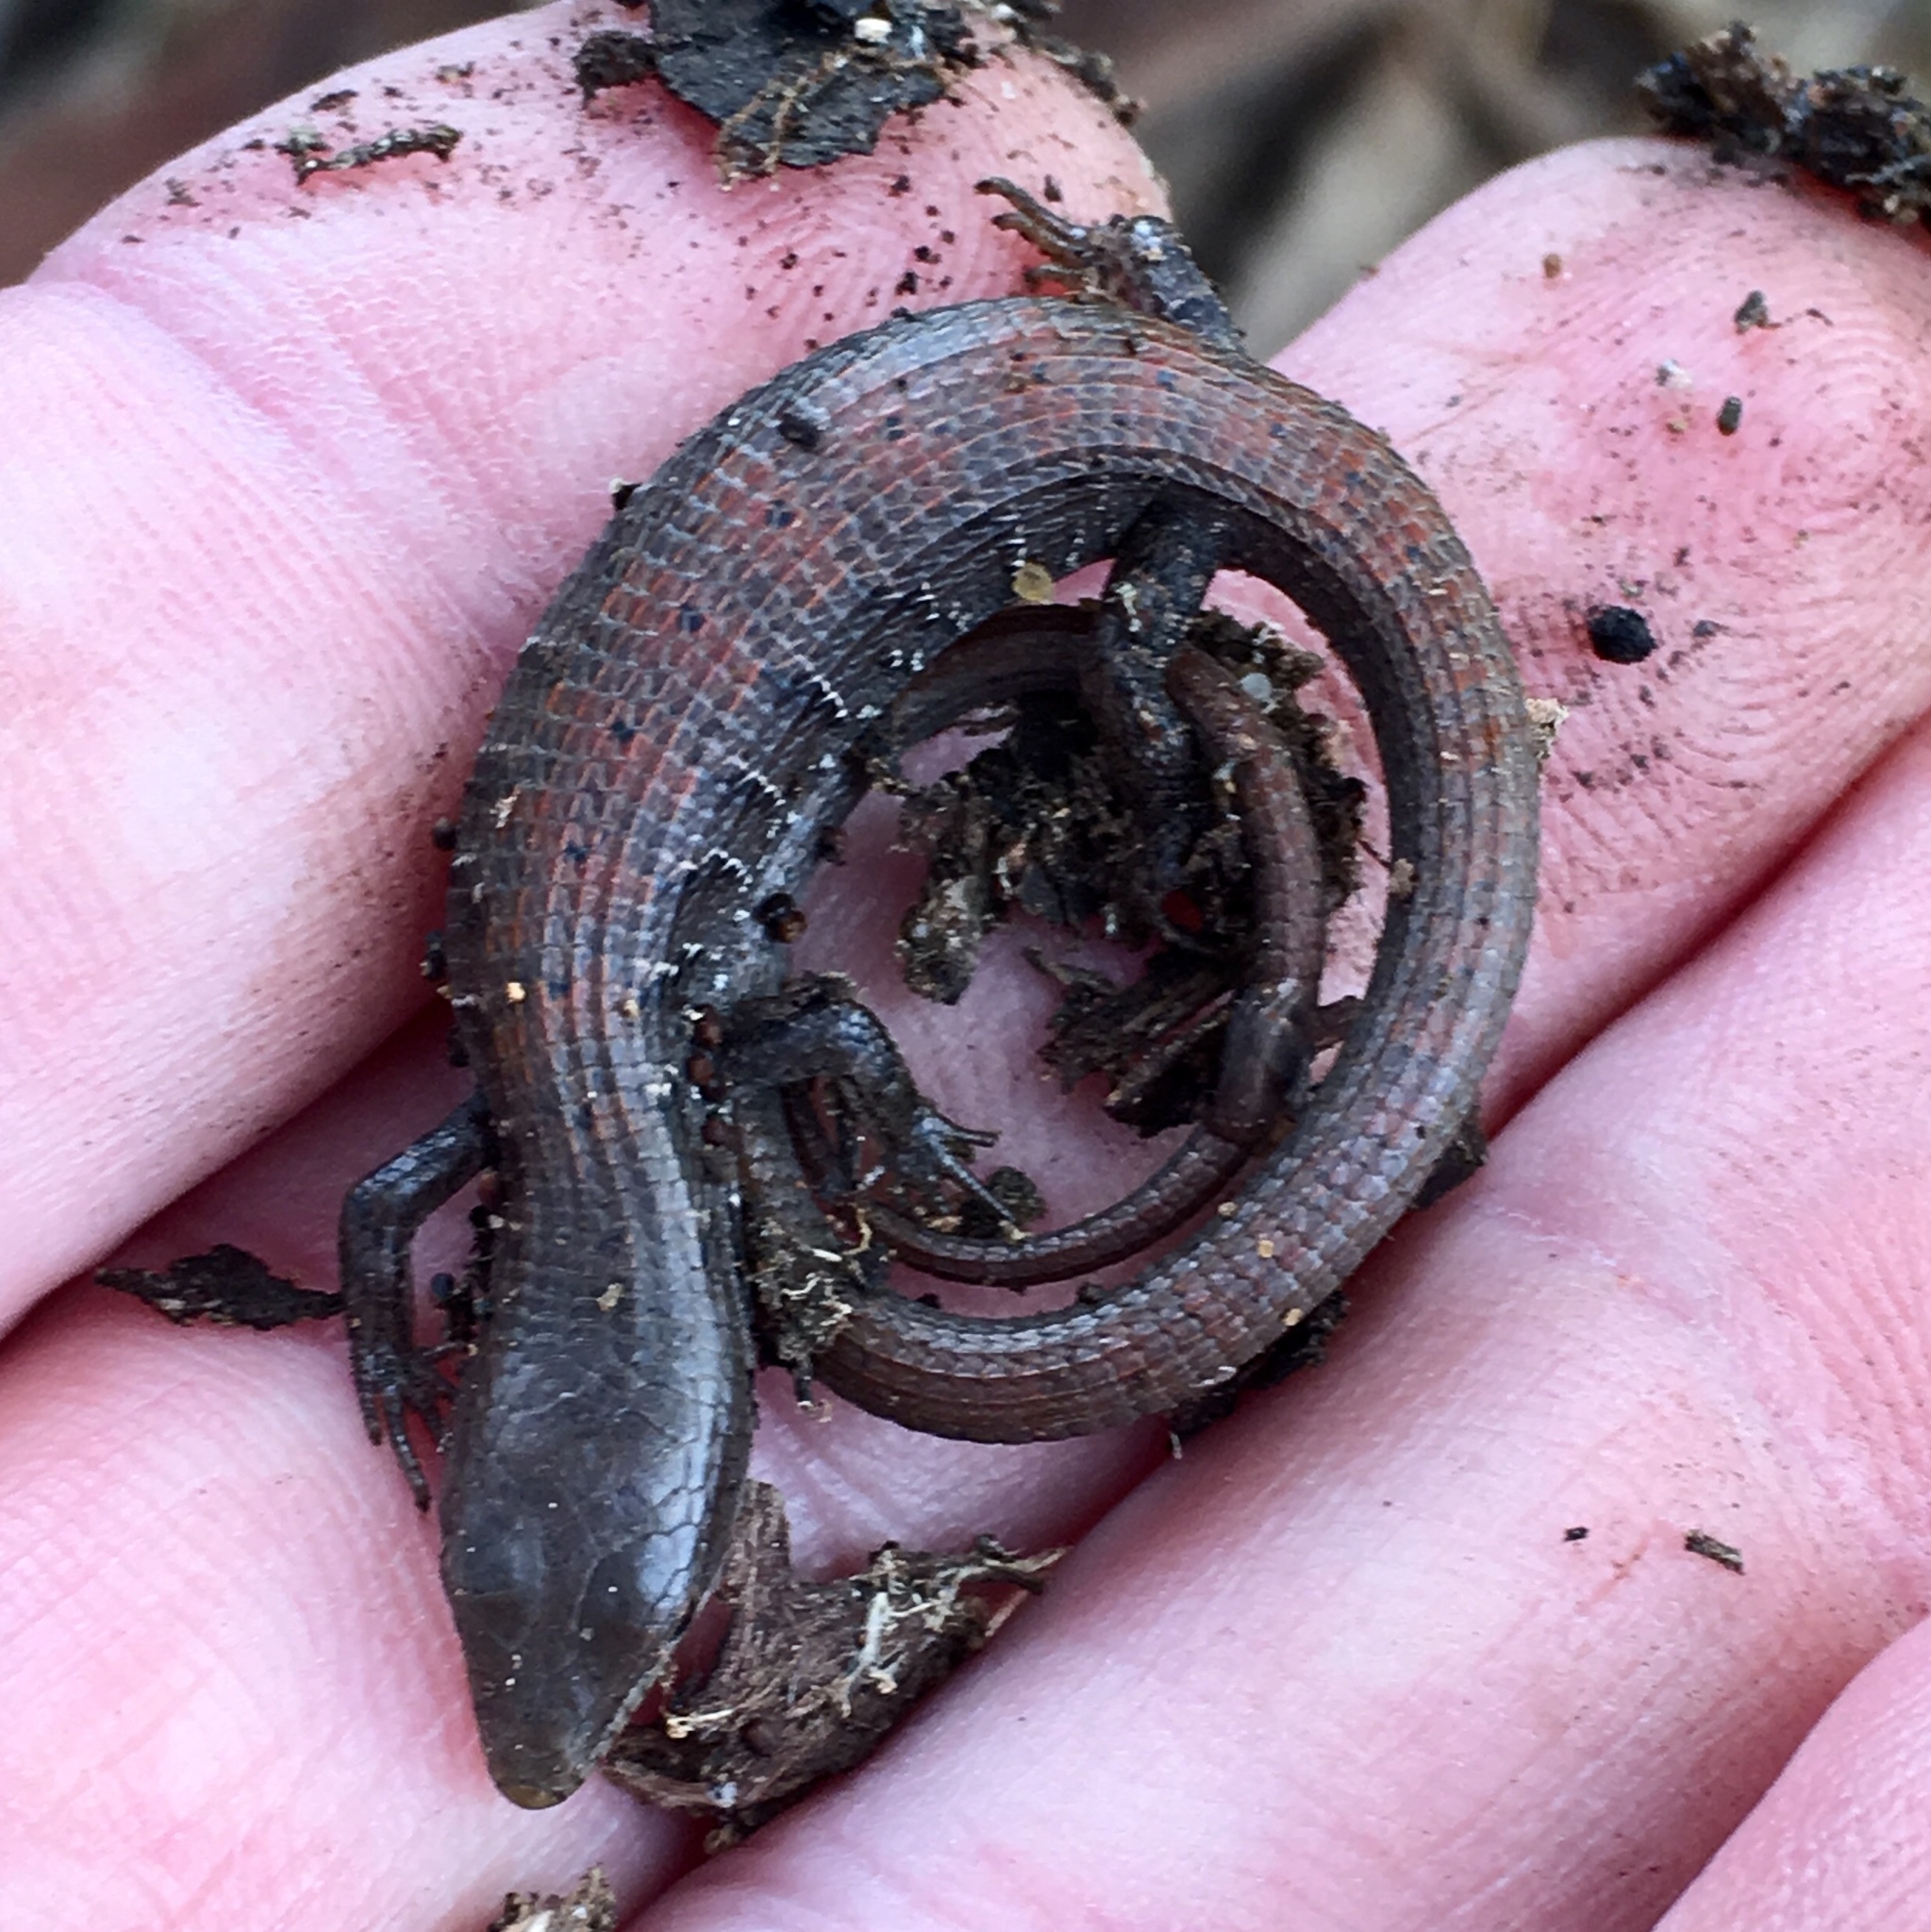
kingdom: Animalia
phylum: Chordata
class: Squamata
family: Anguidae
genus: Elgaria
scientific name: Elgaria multicarinata
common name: Southern alligator lizard
